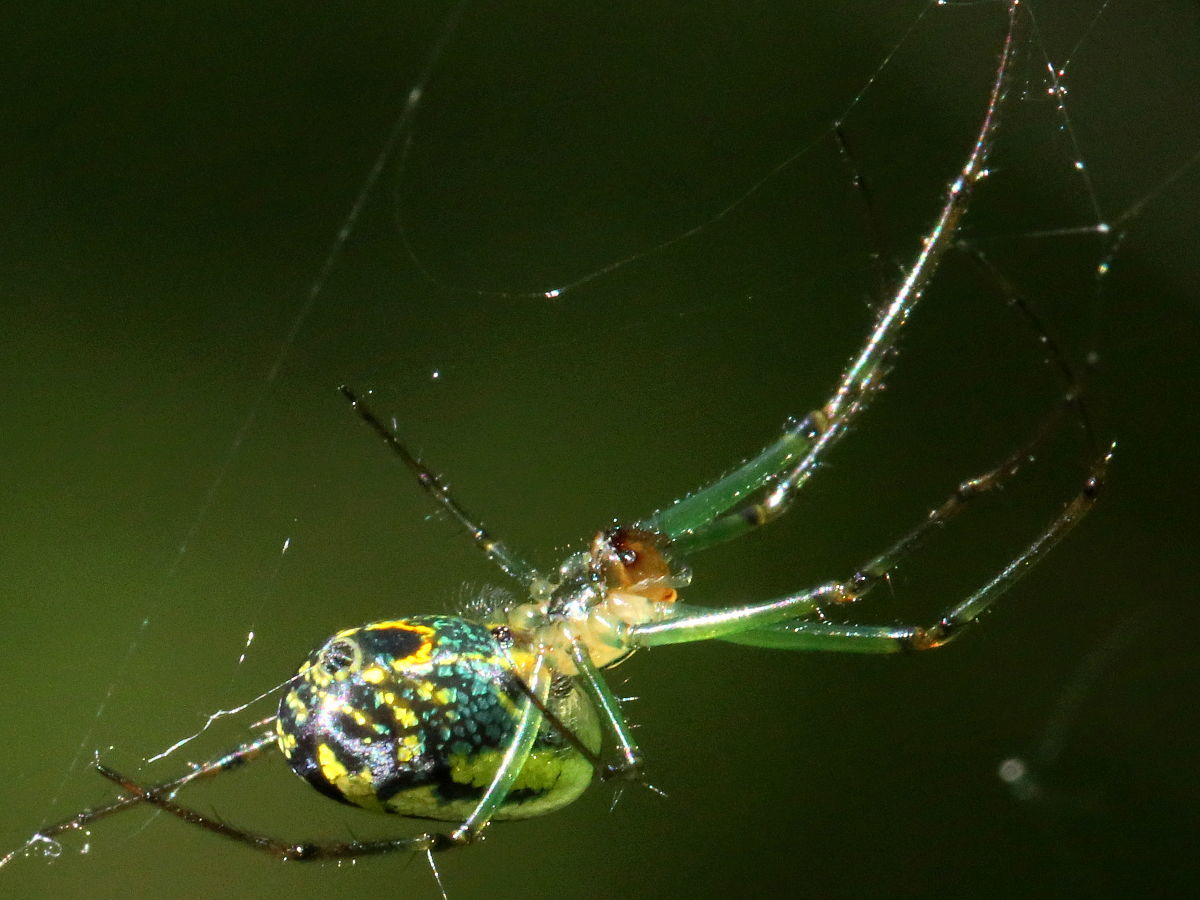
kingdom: Animalia
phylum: Arthropoda
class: Arachnida
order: Araneae
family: Tetragnathidae
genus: Leucauge
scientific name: Leucauge venusta
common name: Longjawed orb weavers
